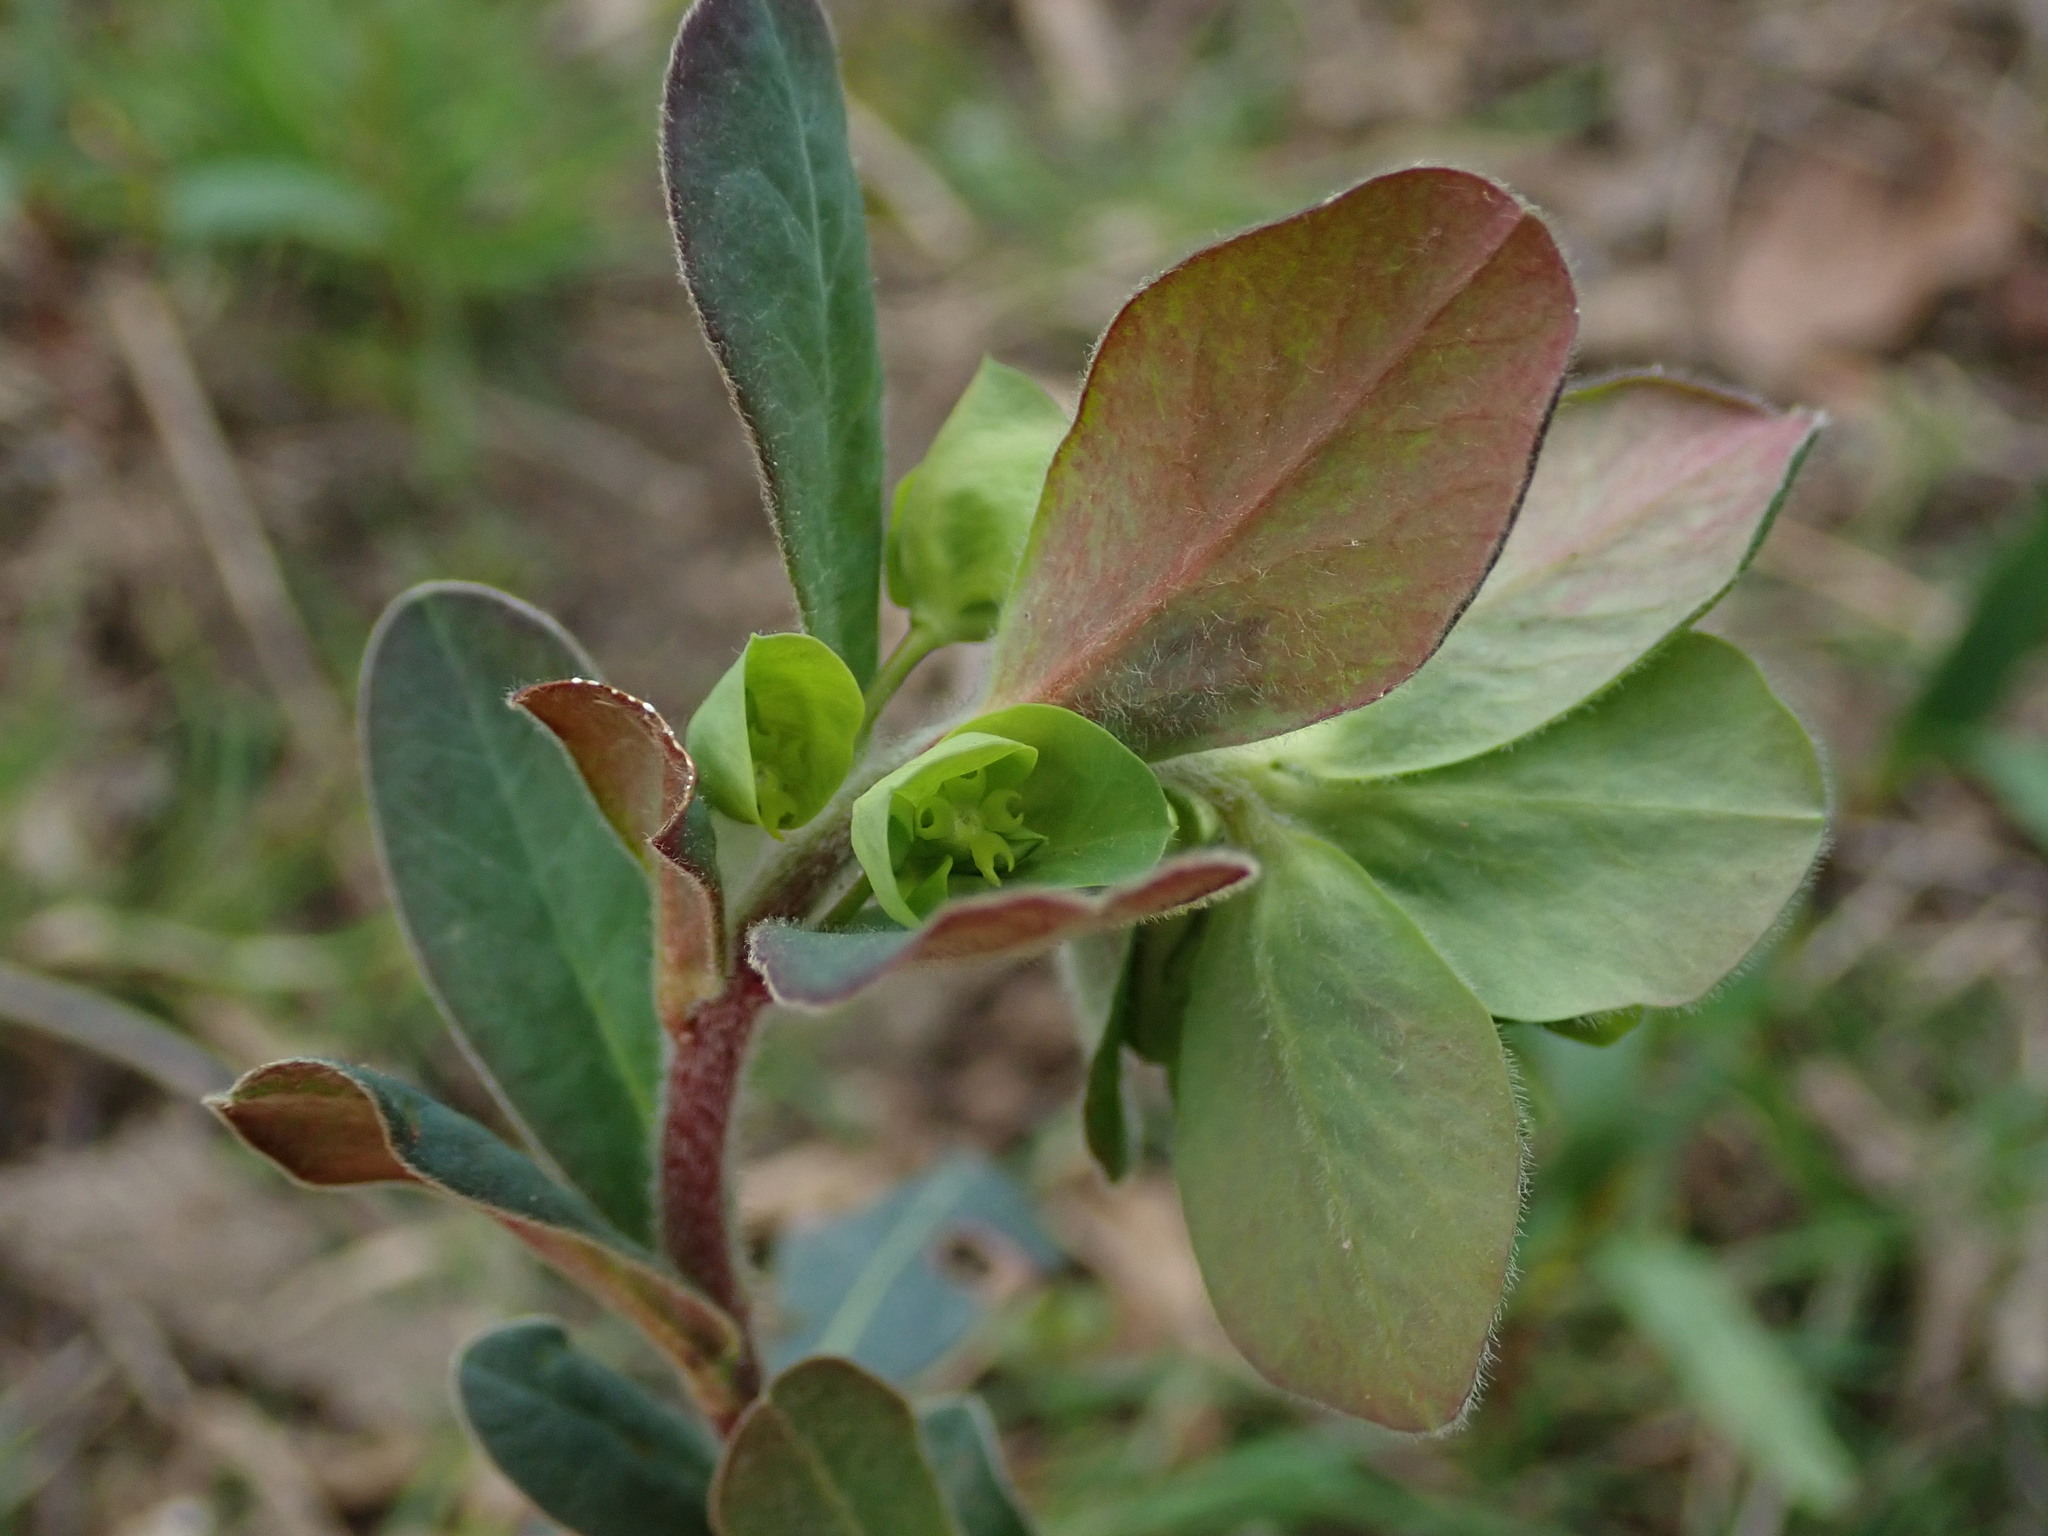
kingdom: Plantae
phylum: Tracheophyta
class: Magnoliopsida
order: Malpighiales
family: Euphorbiaceae
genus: Euphorbia
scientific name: Euphorbia amygdaloides
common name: Wood spurge
